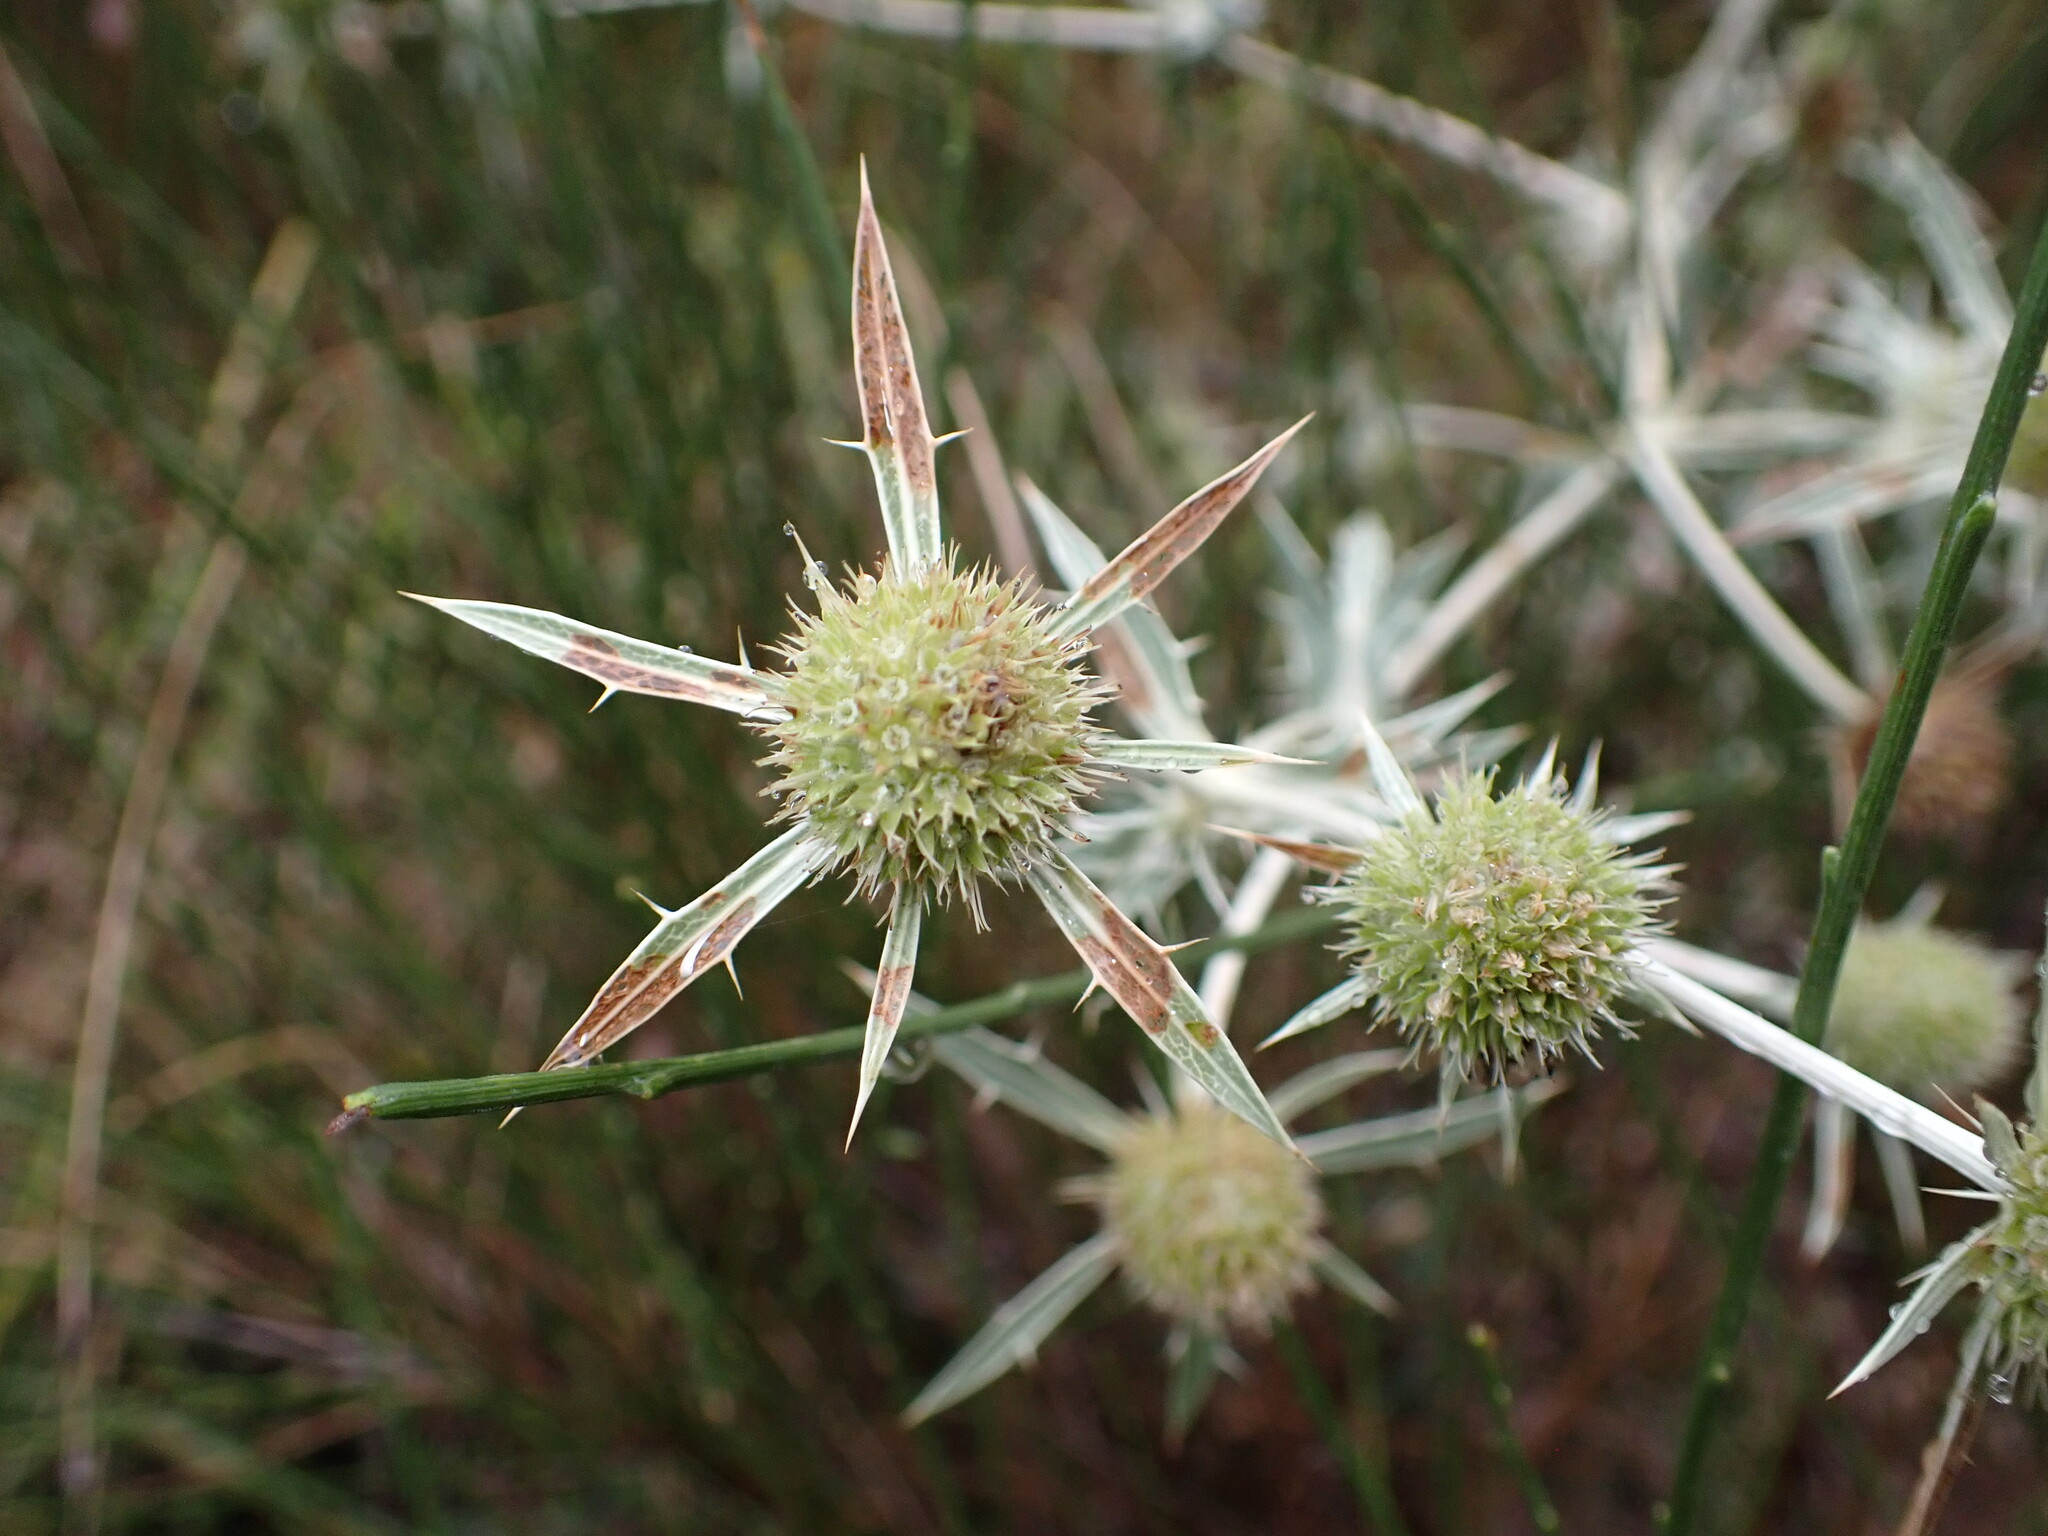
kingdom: Plantae
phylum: Tracheophyta
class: Magnoliopsida
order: Apiales
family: Apiaceae
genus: Eryngium
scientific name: Eryngium campestre
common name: Field eryngo
